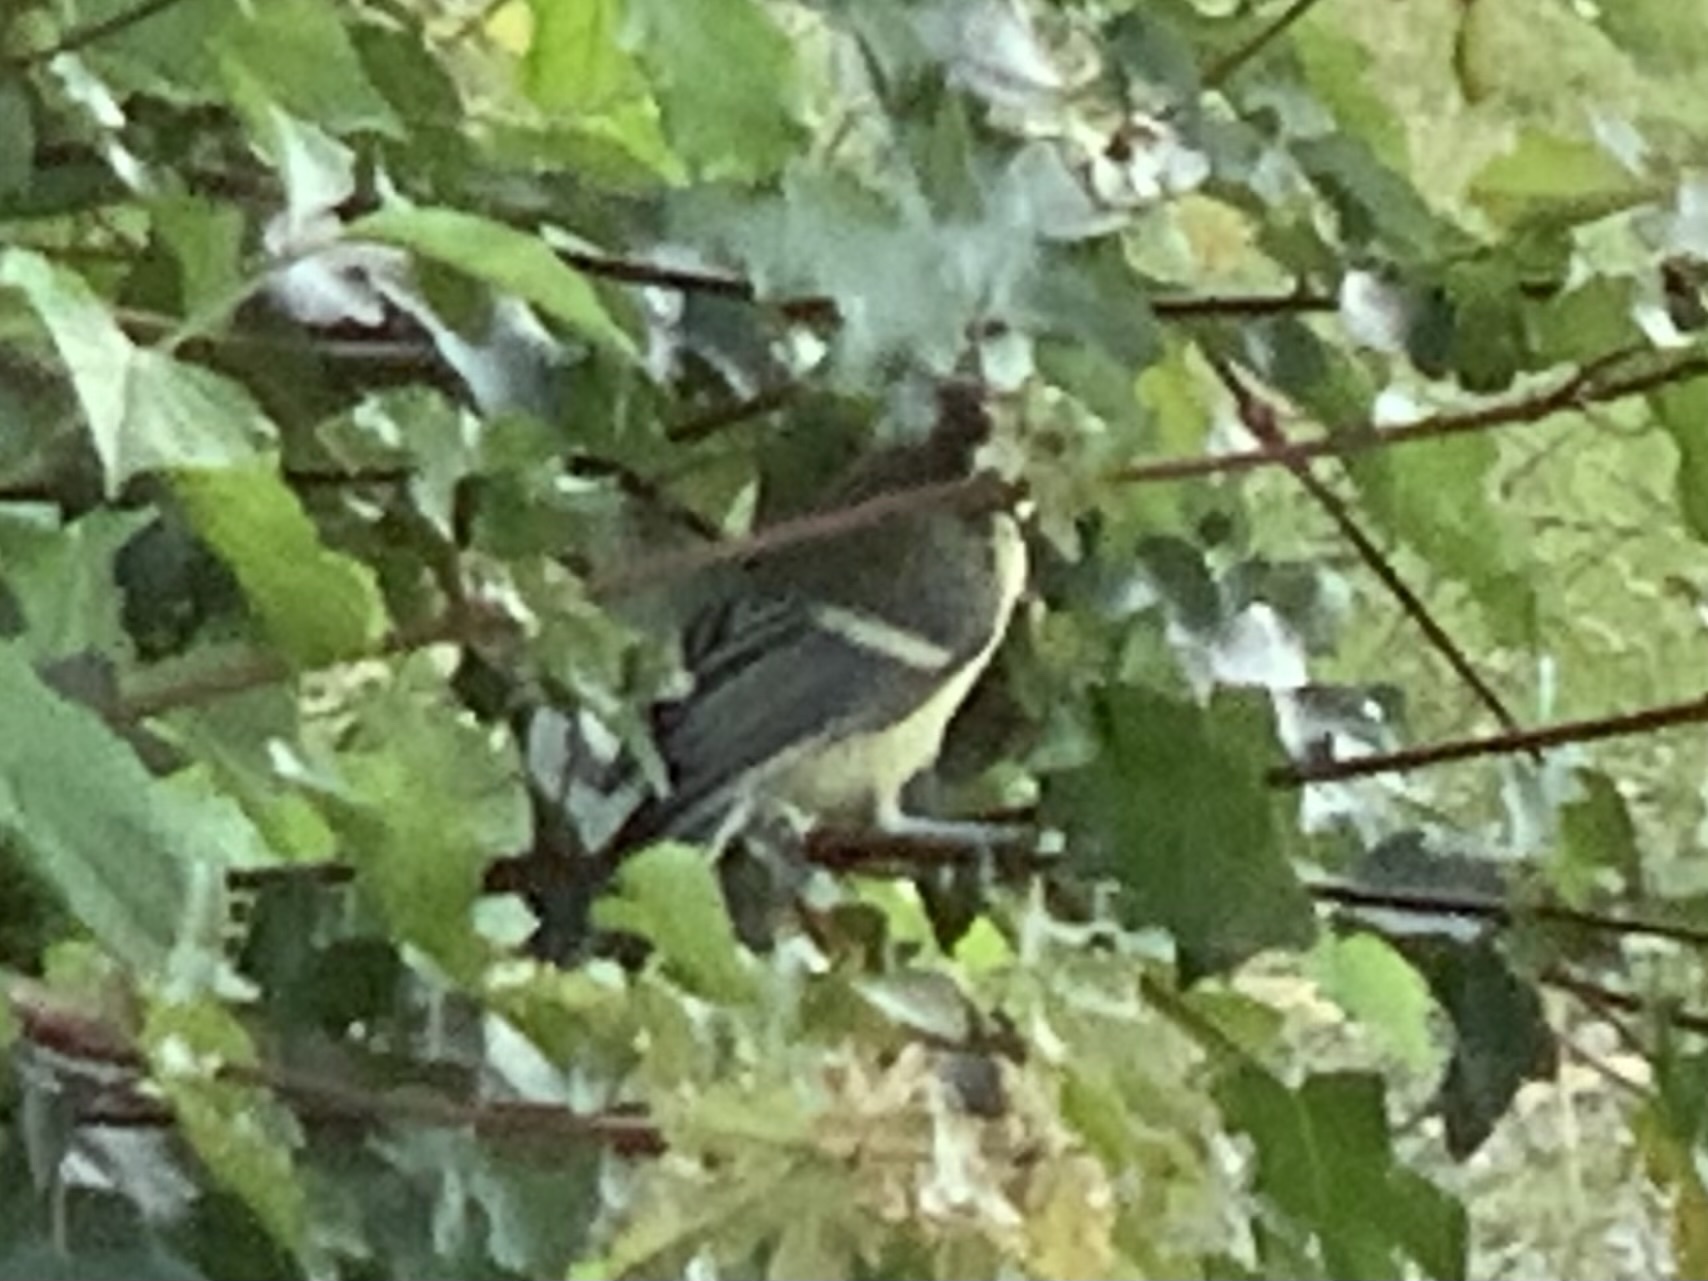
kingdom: Animalia
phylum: Chordata
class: Aves
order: Passeriformes
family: Paridae
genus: Parus
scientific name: Parus major
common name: Great tit
